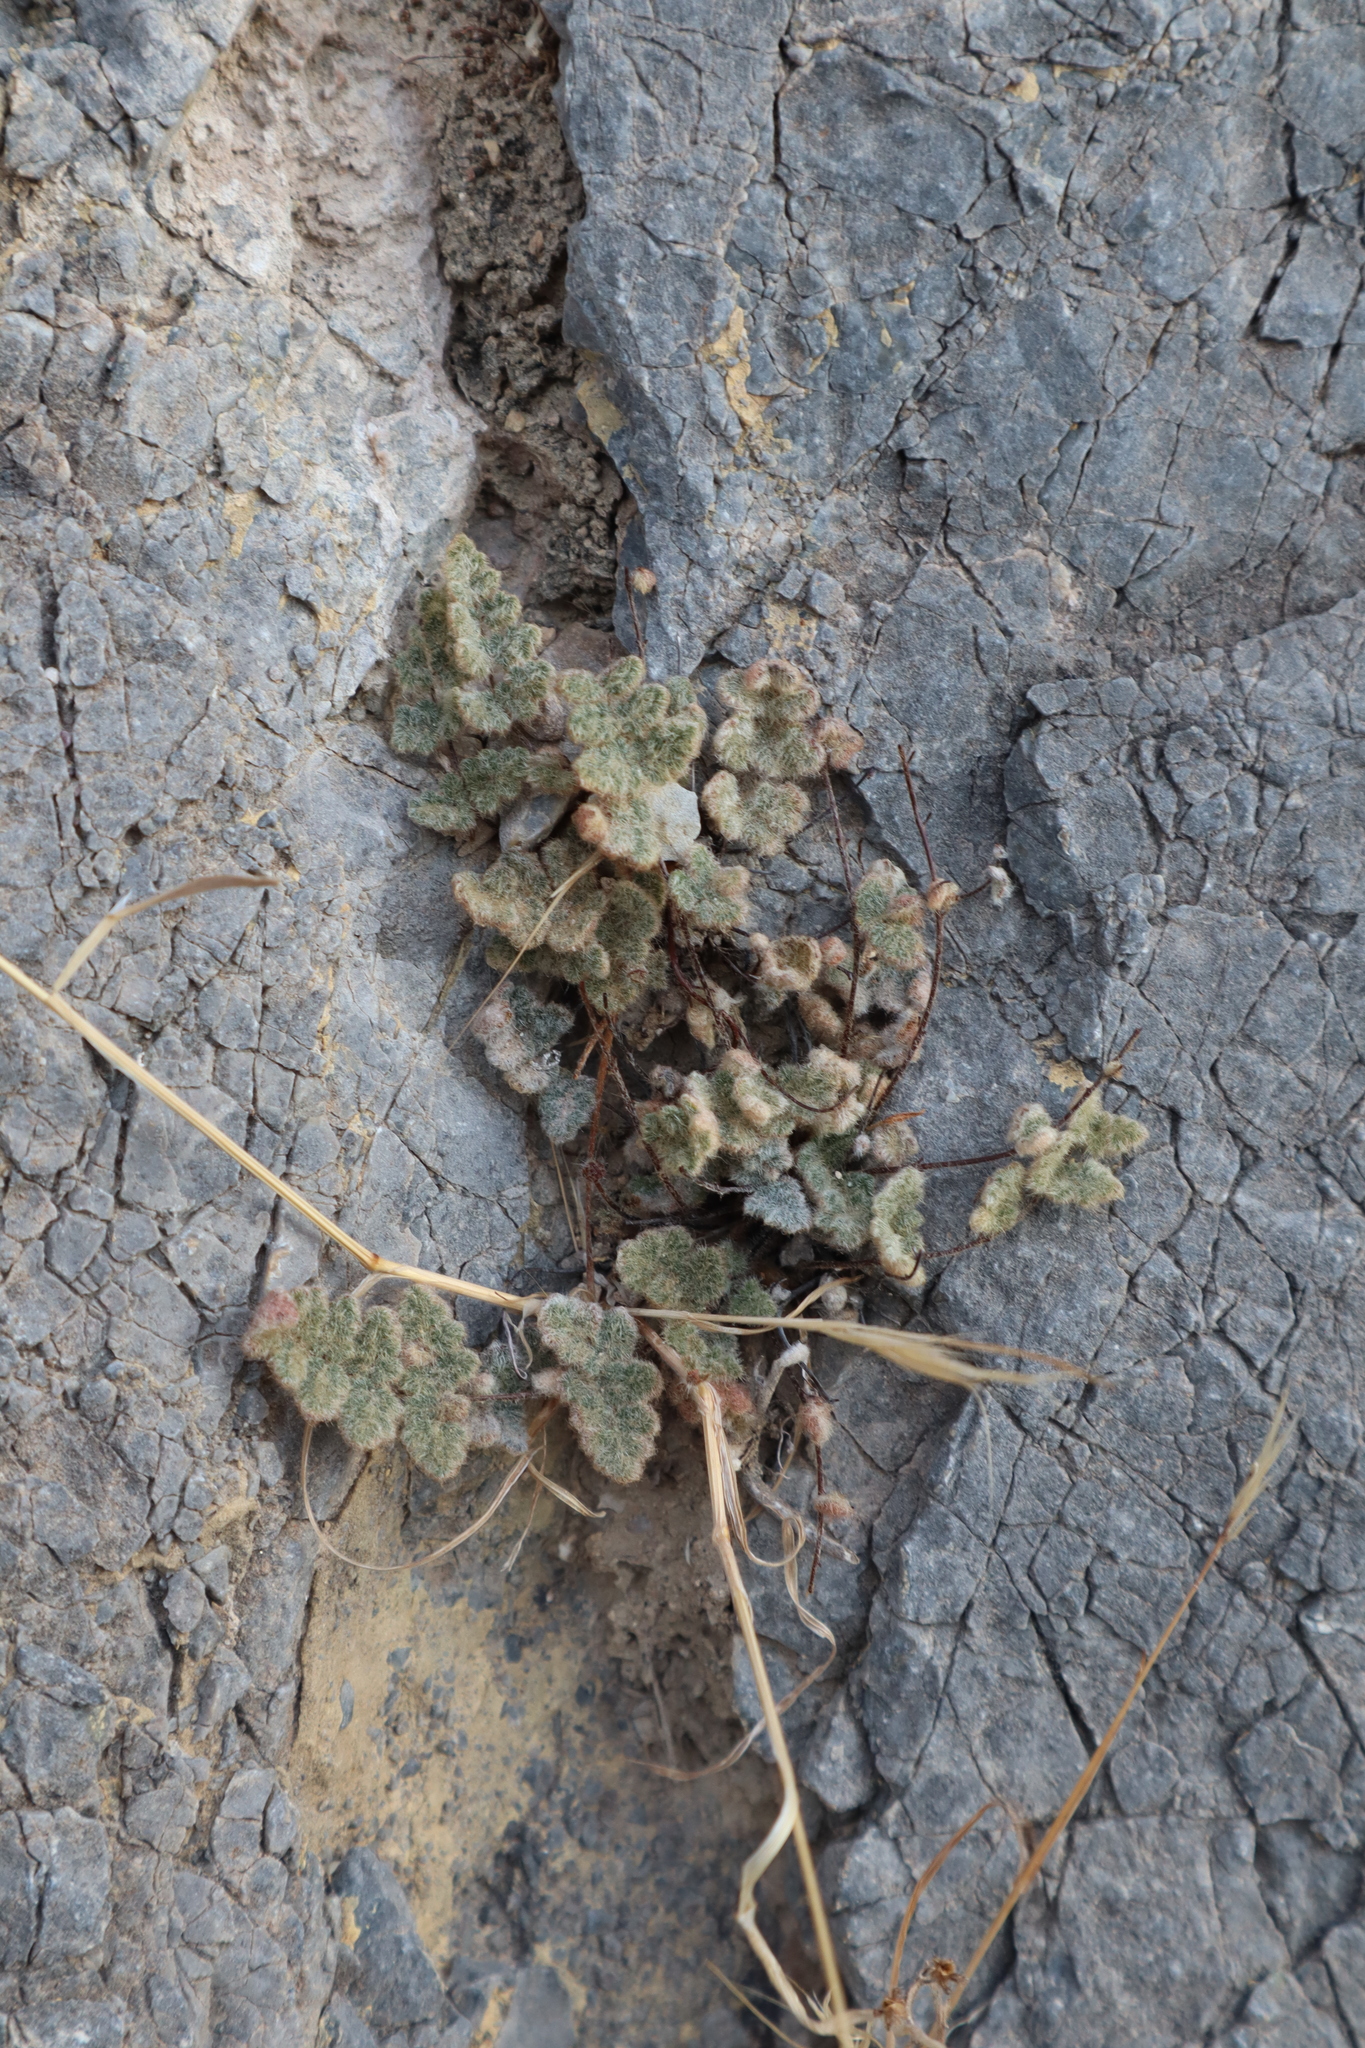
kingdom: Plantae
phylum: Tracheophyta
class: Polypodiopsida
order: Polypodiales
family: Pteridaceae
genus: Myriopteris
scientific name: Myriopteris parryi
